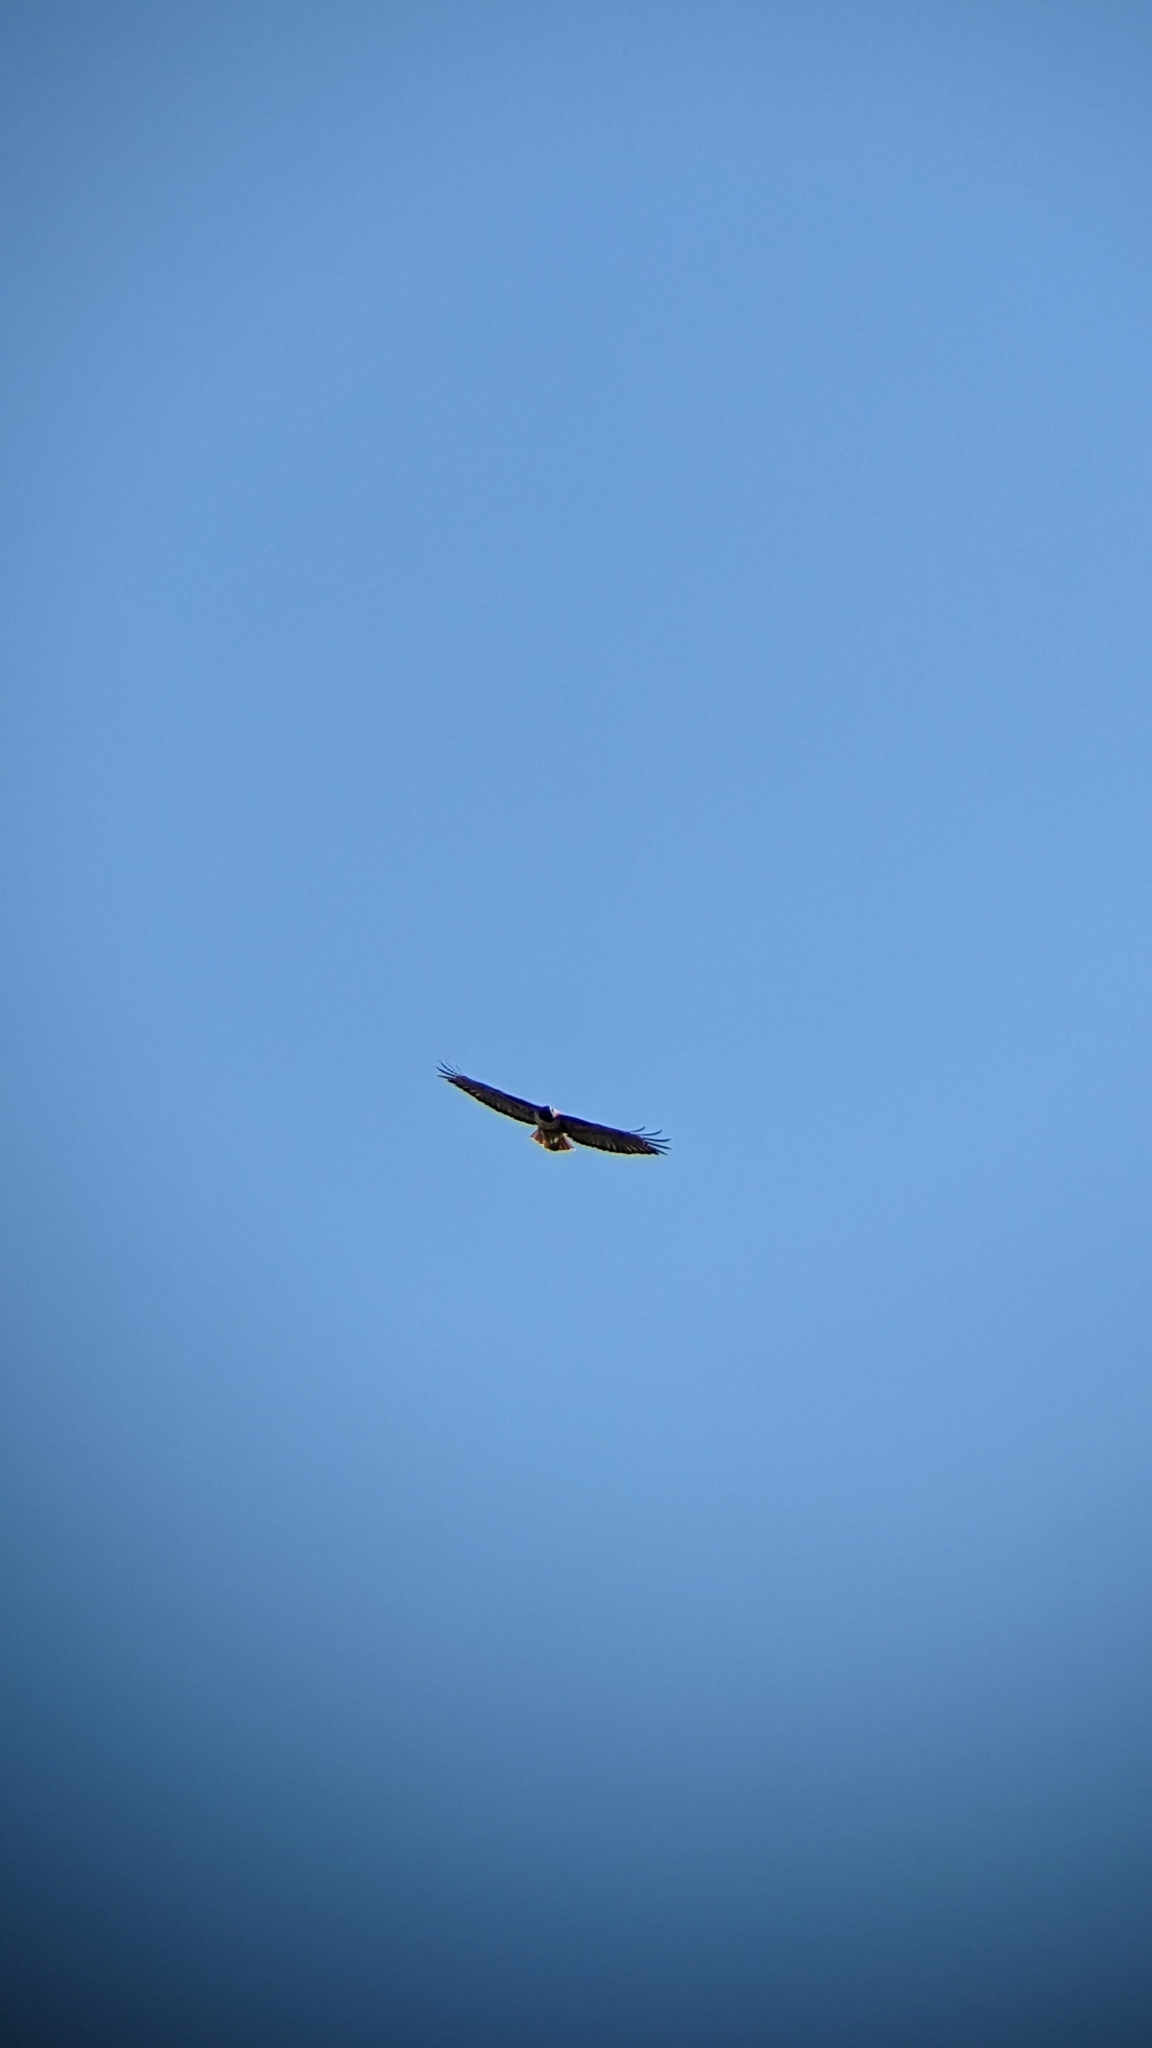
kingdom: Animalia
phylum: Chordata
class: Aves
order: Accipitriformes
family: Accipitridae
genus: Buteo
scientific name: Buteo jamaicensis
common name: Red-tailed hawk
